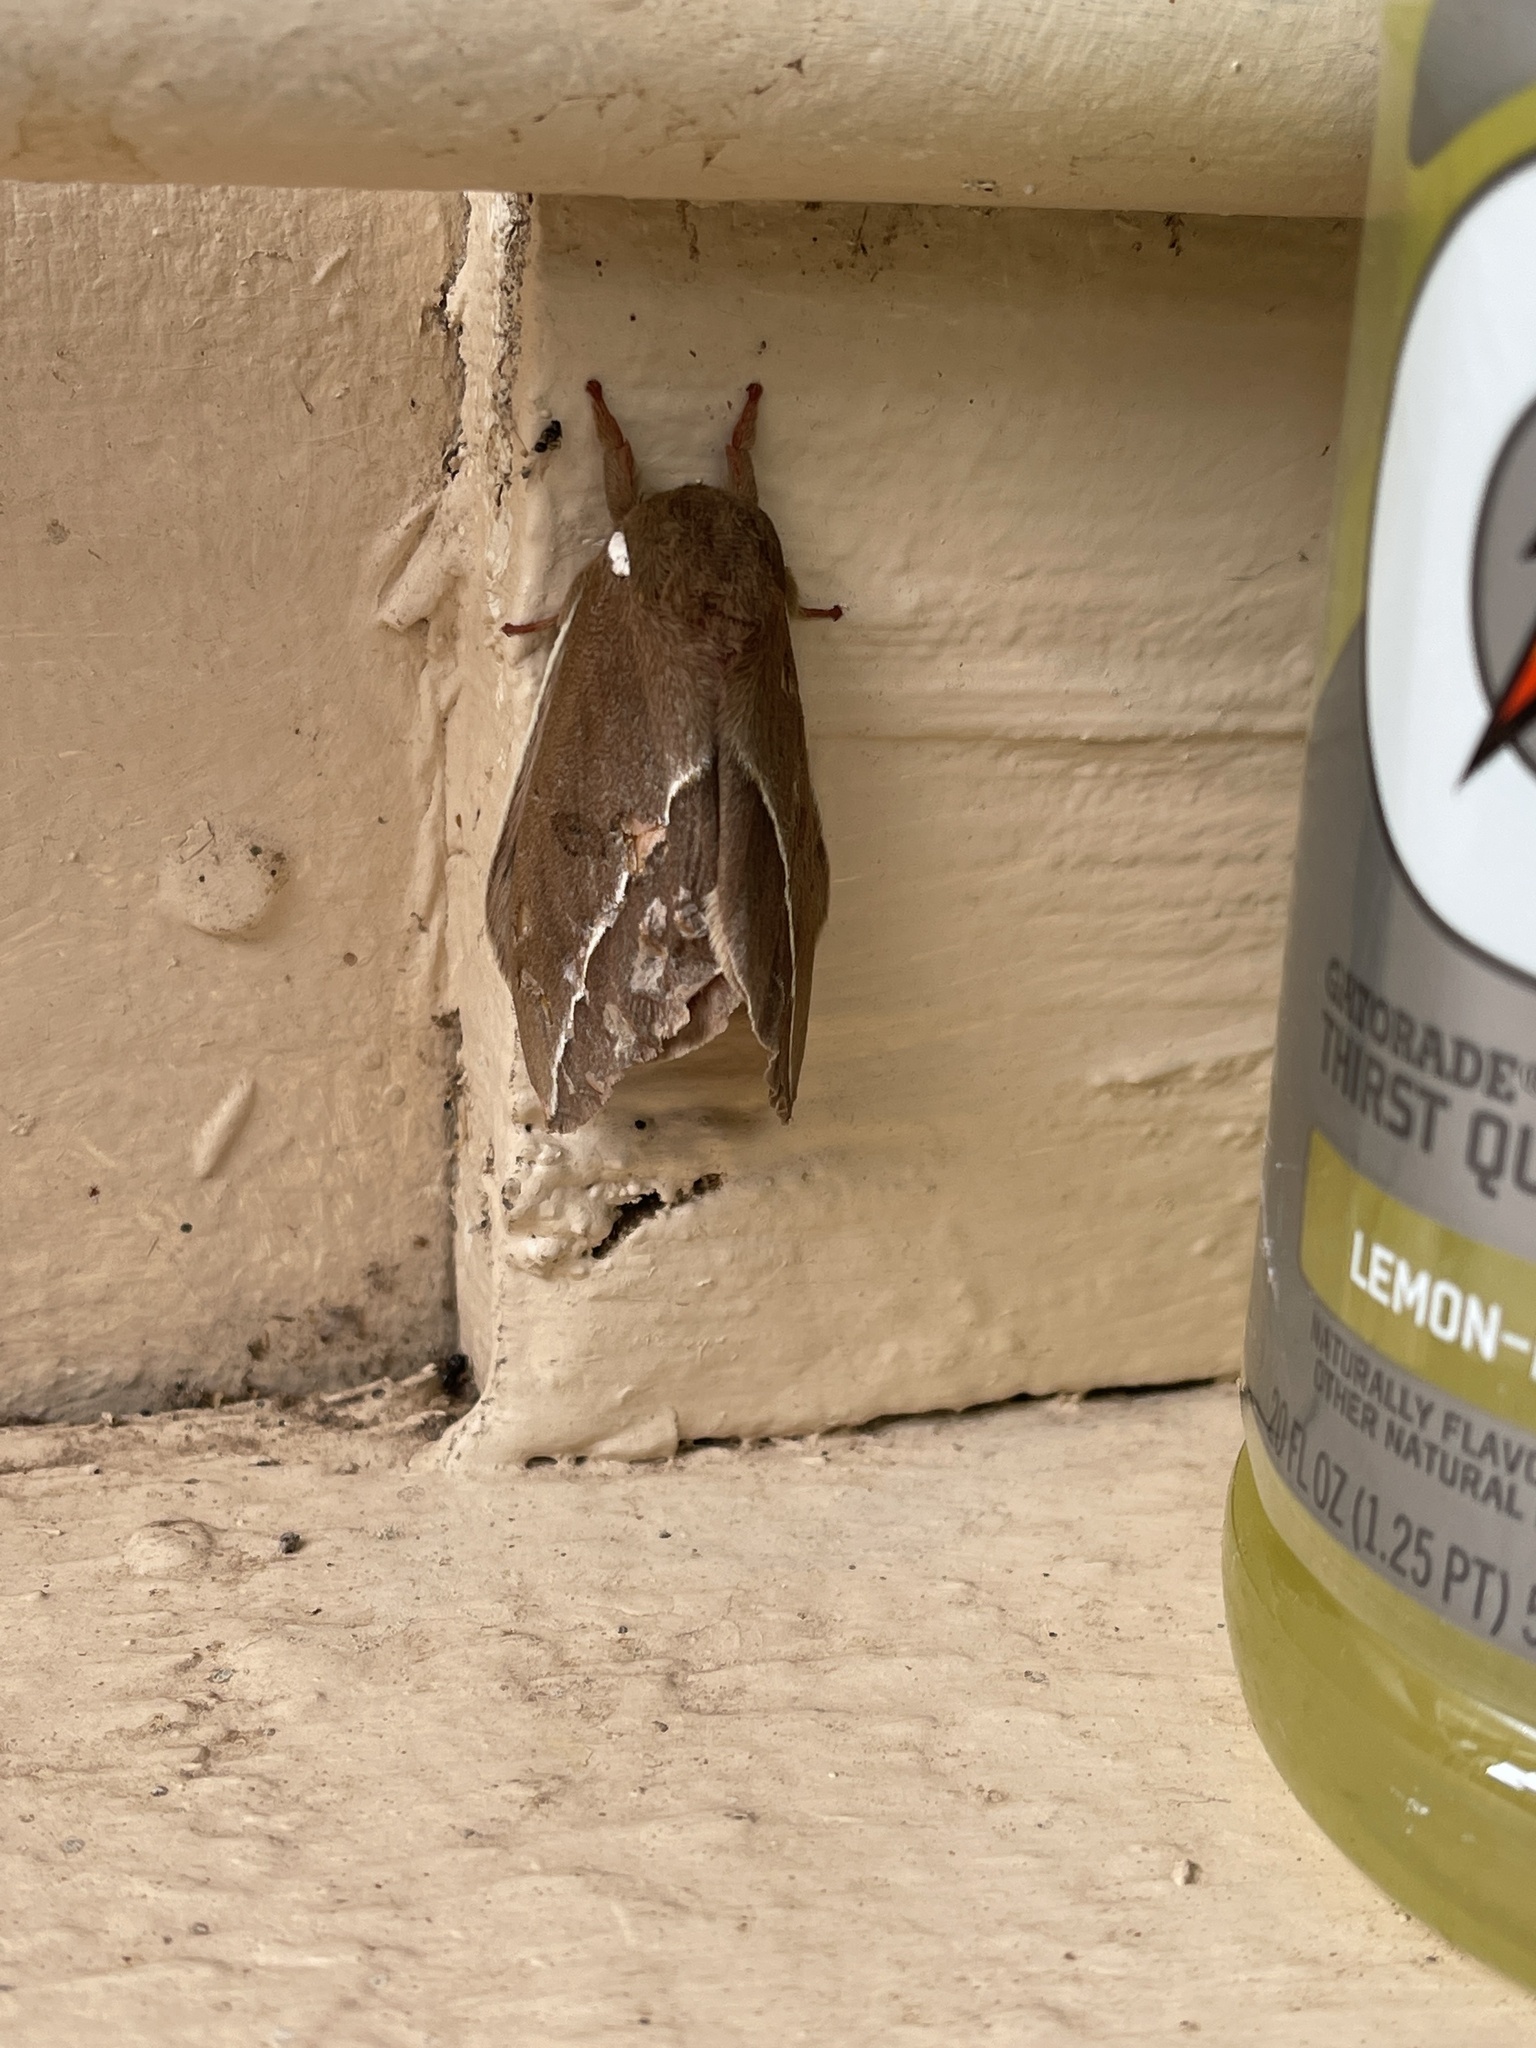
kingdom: Animalia
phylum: Arthropoda
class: Insecta
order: Lepidoptera
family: Saturniidae
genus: Automeris
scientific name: Automeris zephyria
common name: Zephyr eyed silkmoth
